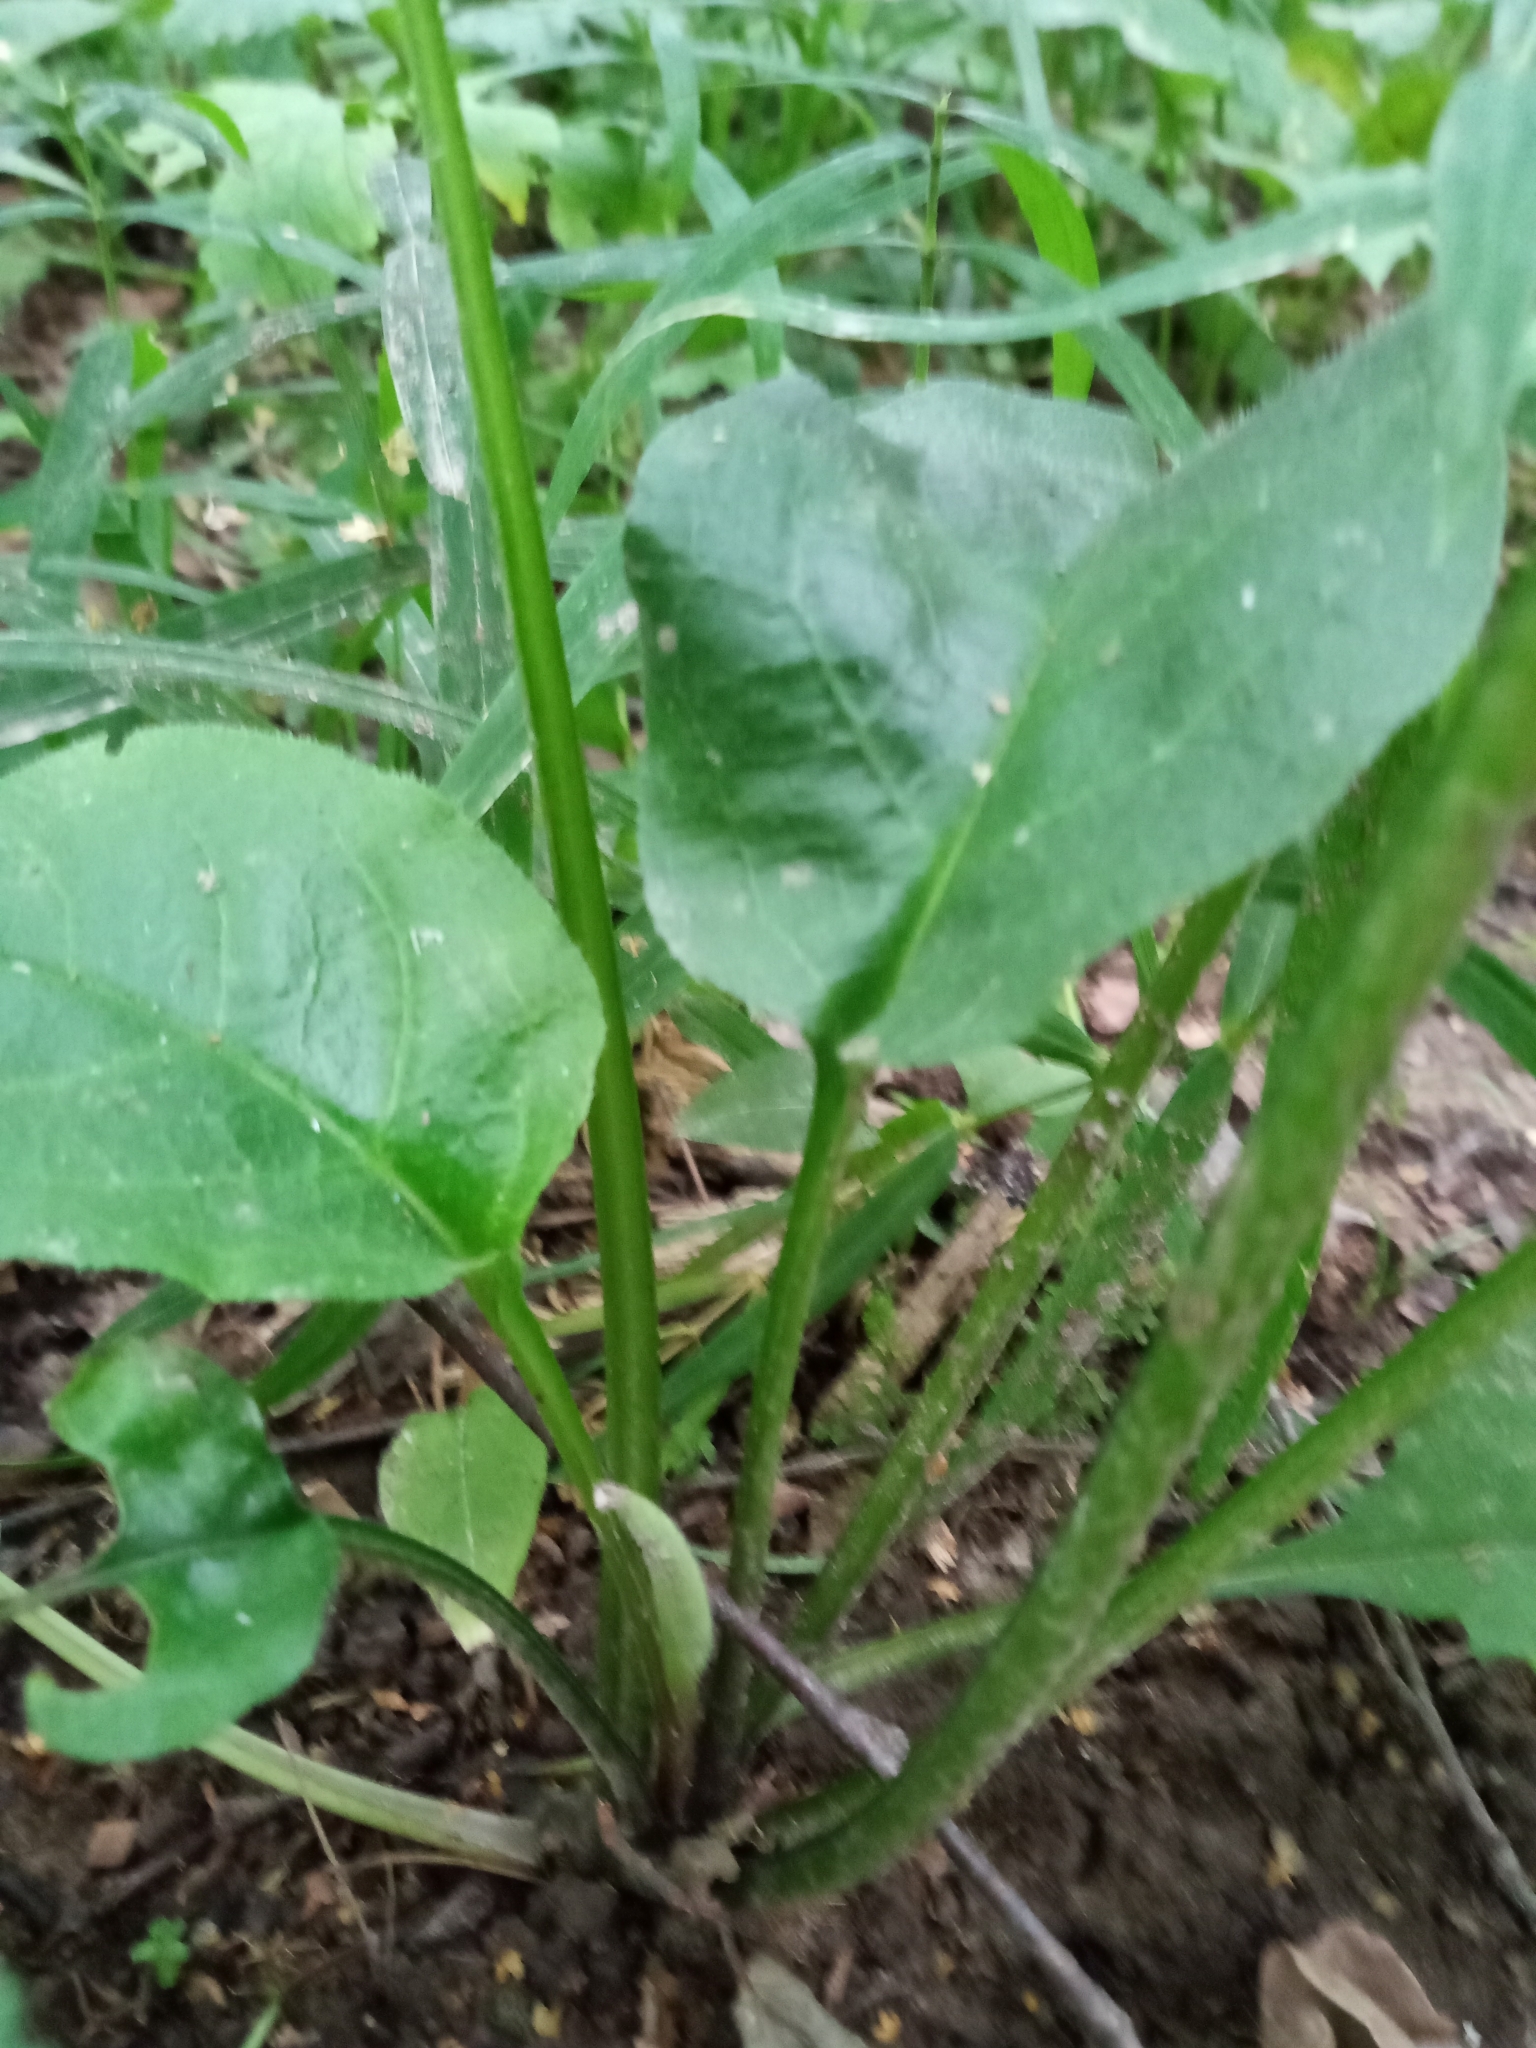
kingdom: Plantae
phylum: Tracheophyta
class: Magnoliopsida
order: Boraginales
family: Boraginaceae
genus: Pulmonaria
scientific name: Pulmonaria obscura
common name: Suffolk lungwort
